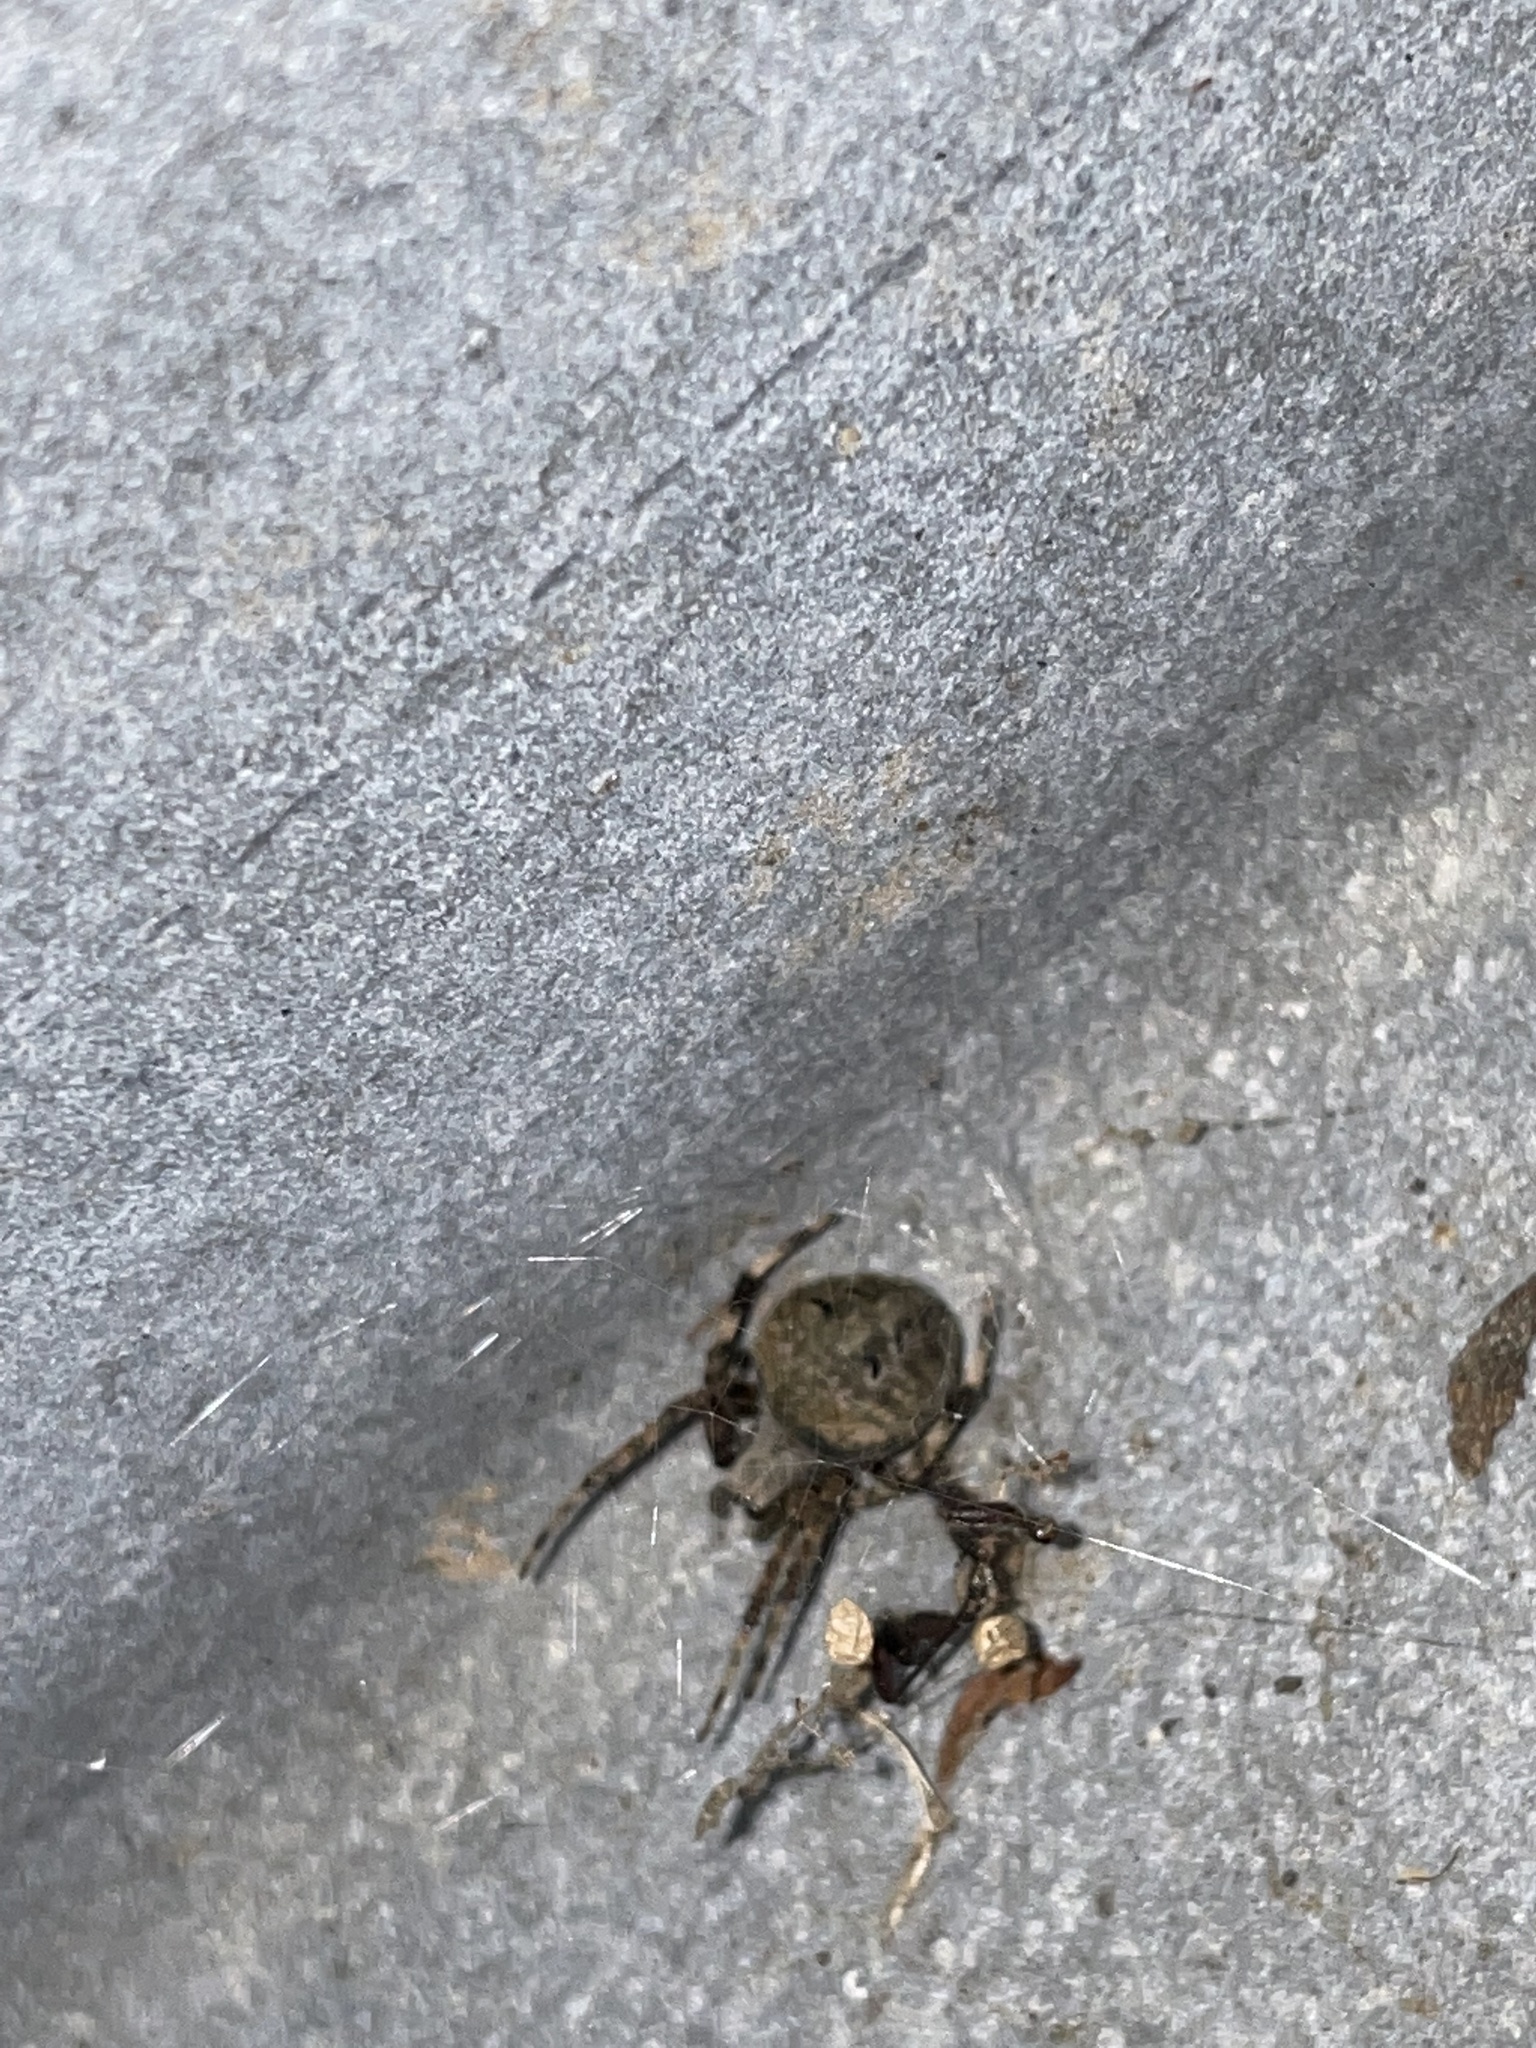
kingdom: Animalia
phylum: Arthropoda
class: Arachnida
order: Araneae
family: Araneidae
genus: Neoscona
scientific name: Neoscona crucifera
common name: Spotted orbweaver
